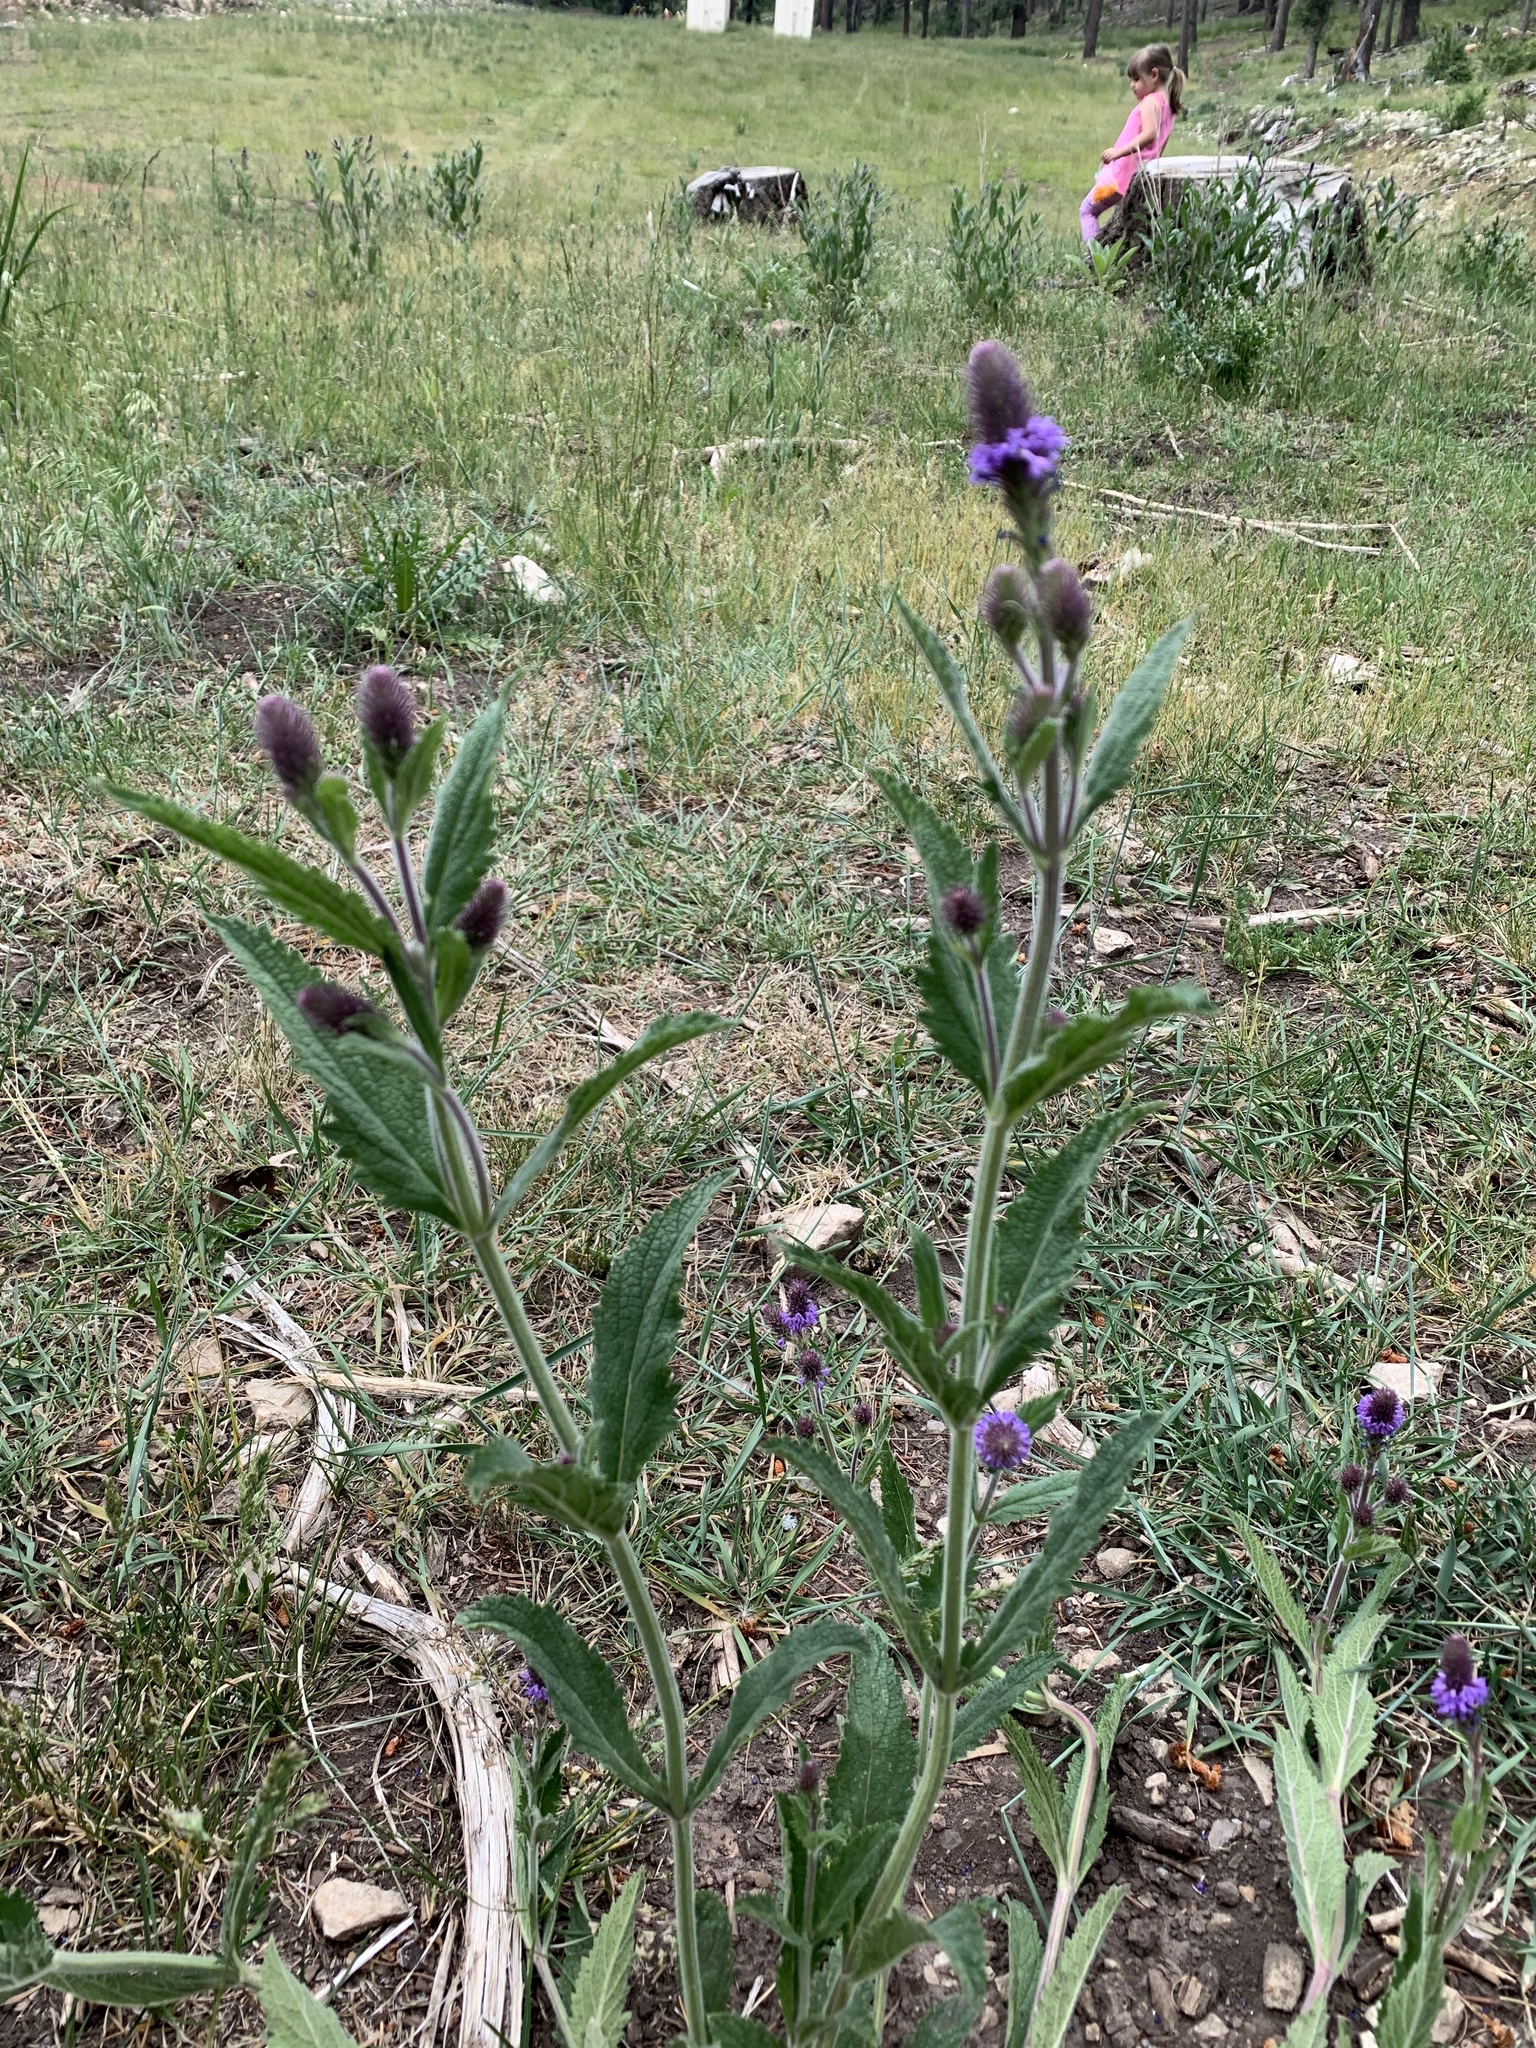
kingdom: Plantae
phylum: Tracheophyta
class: Magnoliopsida
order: Lamiales
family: Verbenaceae
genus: Verbena
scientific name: Verbena macdougalii
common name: New mexico vervain
